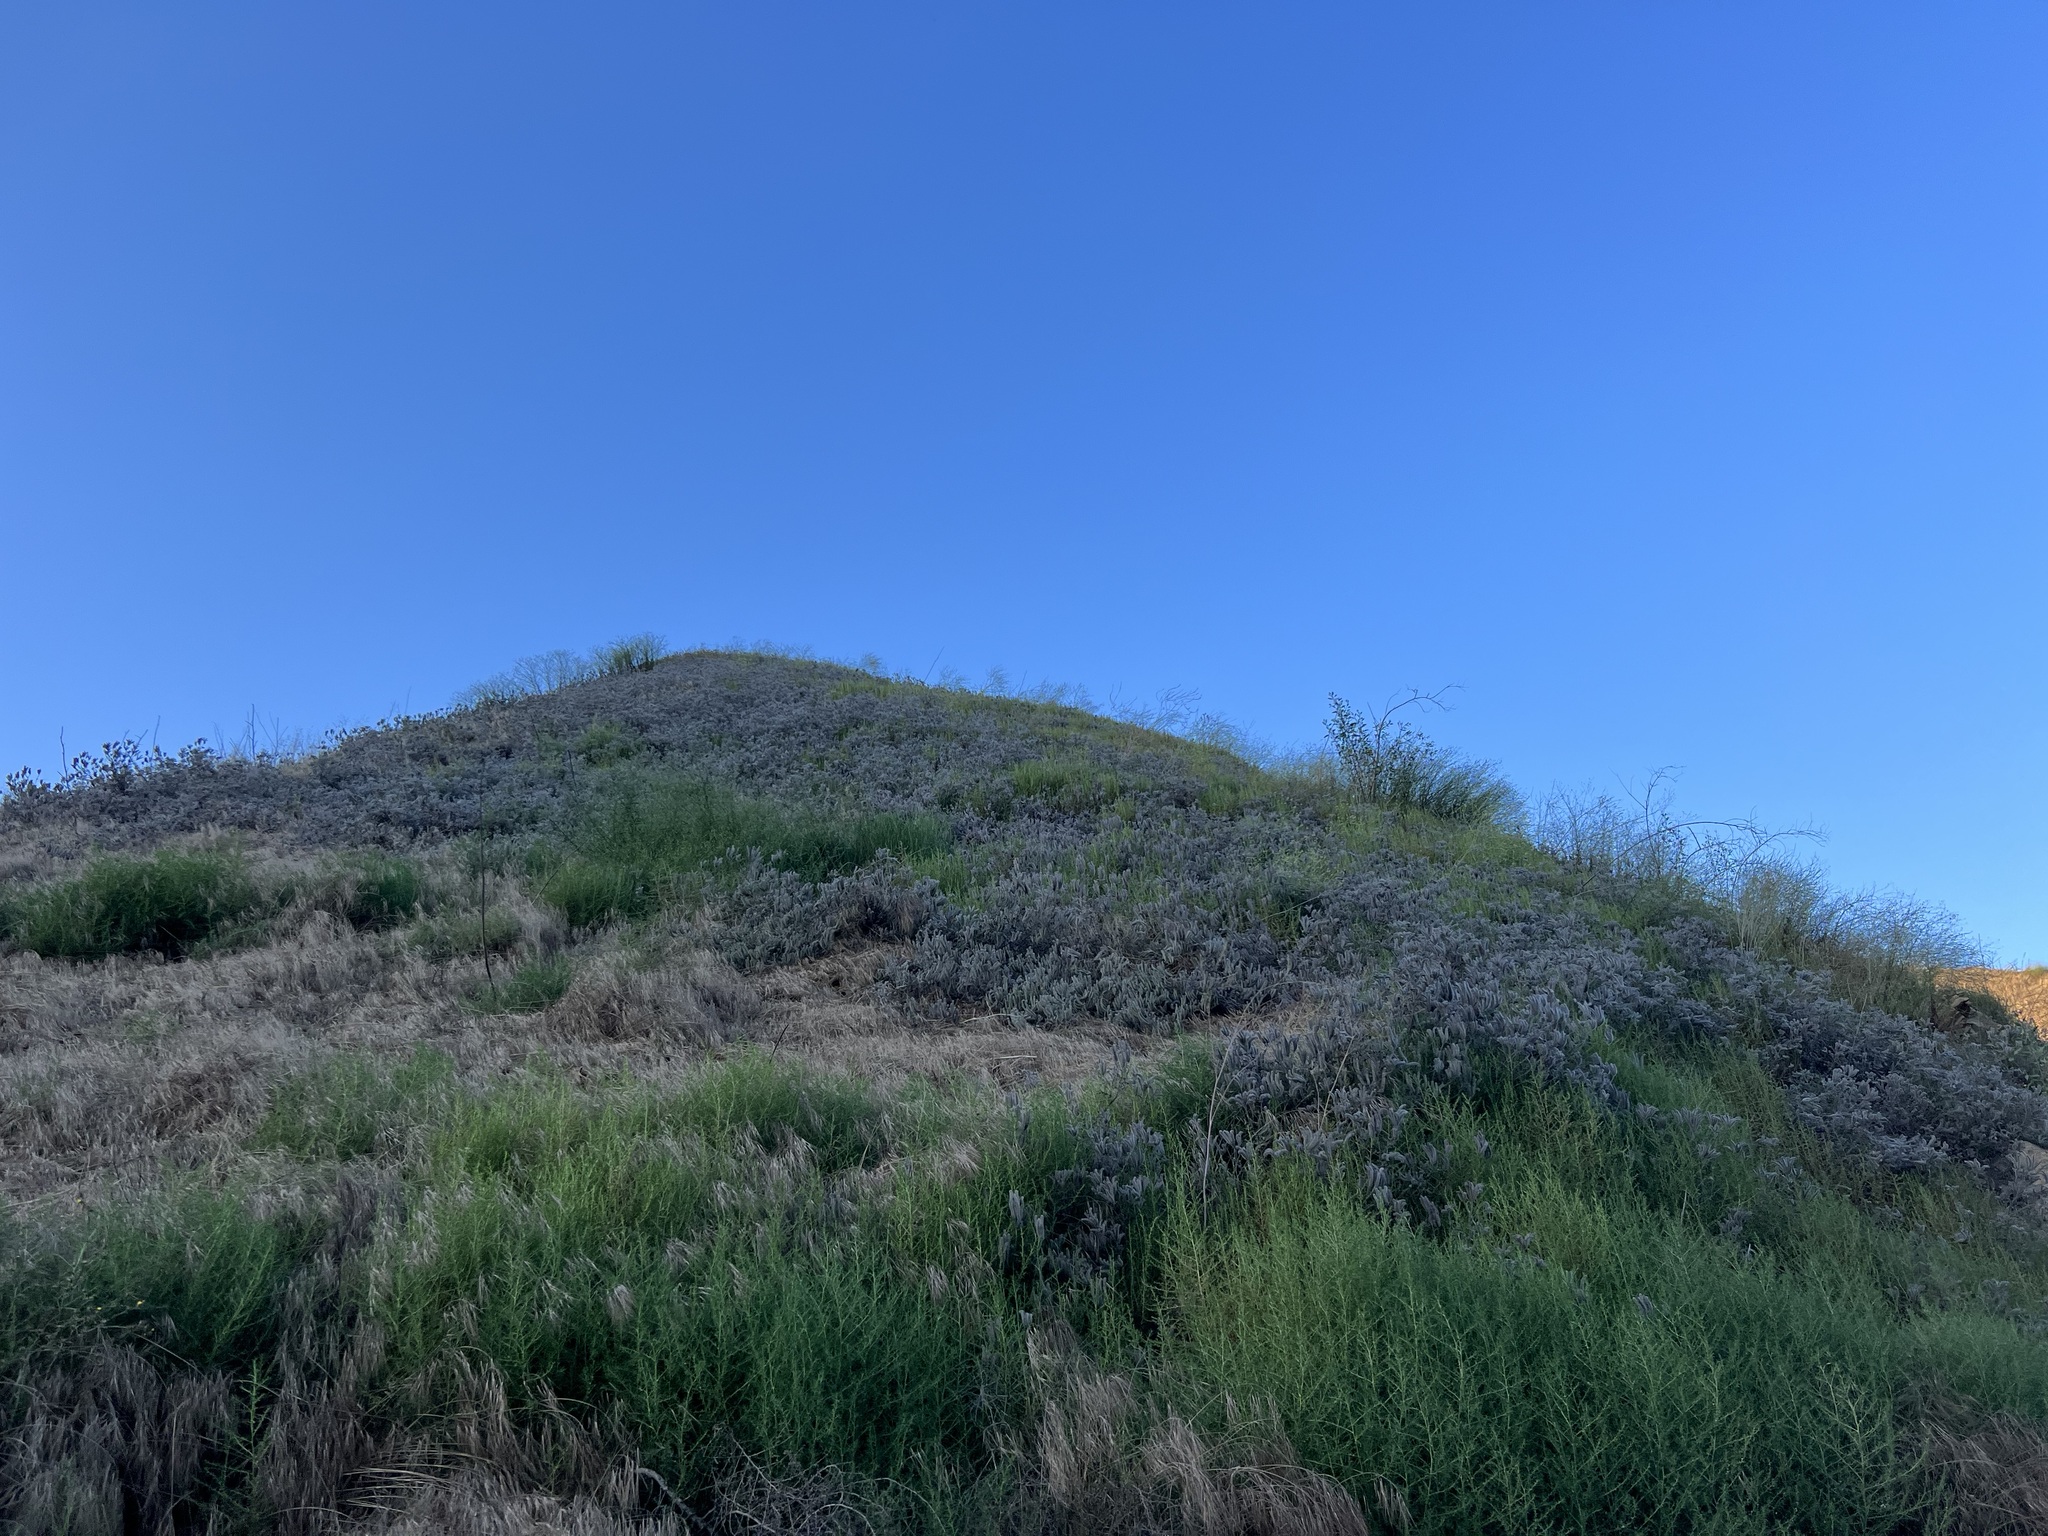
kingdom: Plantae
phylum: Tracheophyta
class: Magnoliopsida
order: Boraginales
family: Hydrophyllaceae
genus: Phacelia
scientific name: Phacelia hubbyi
